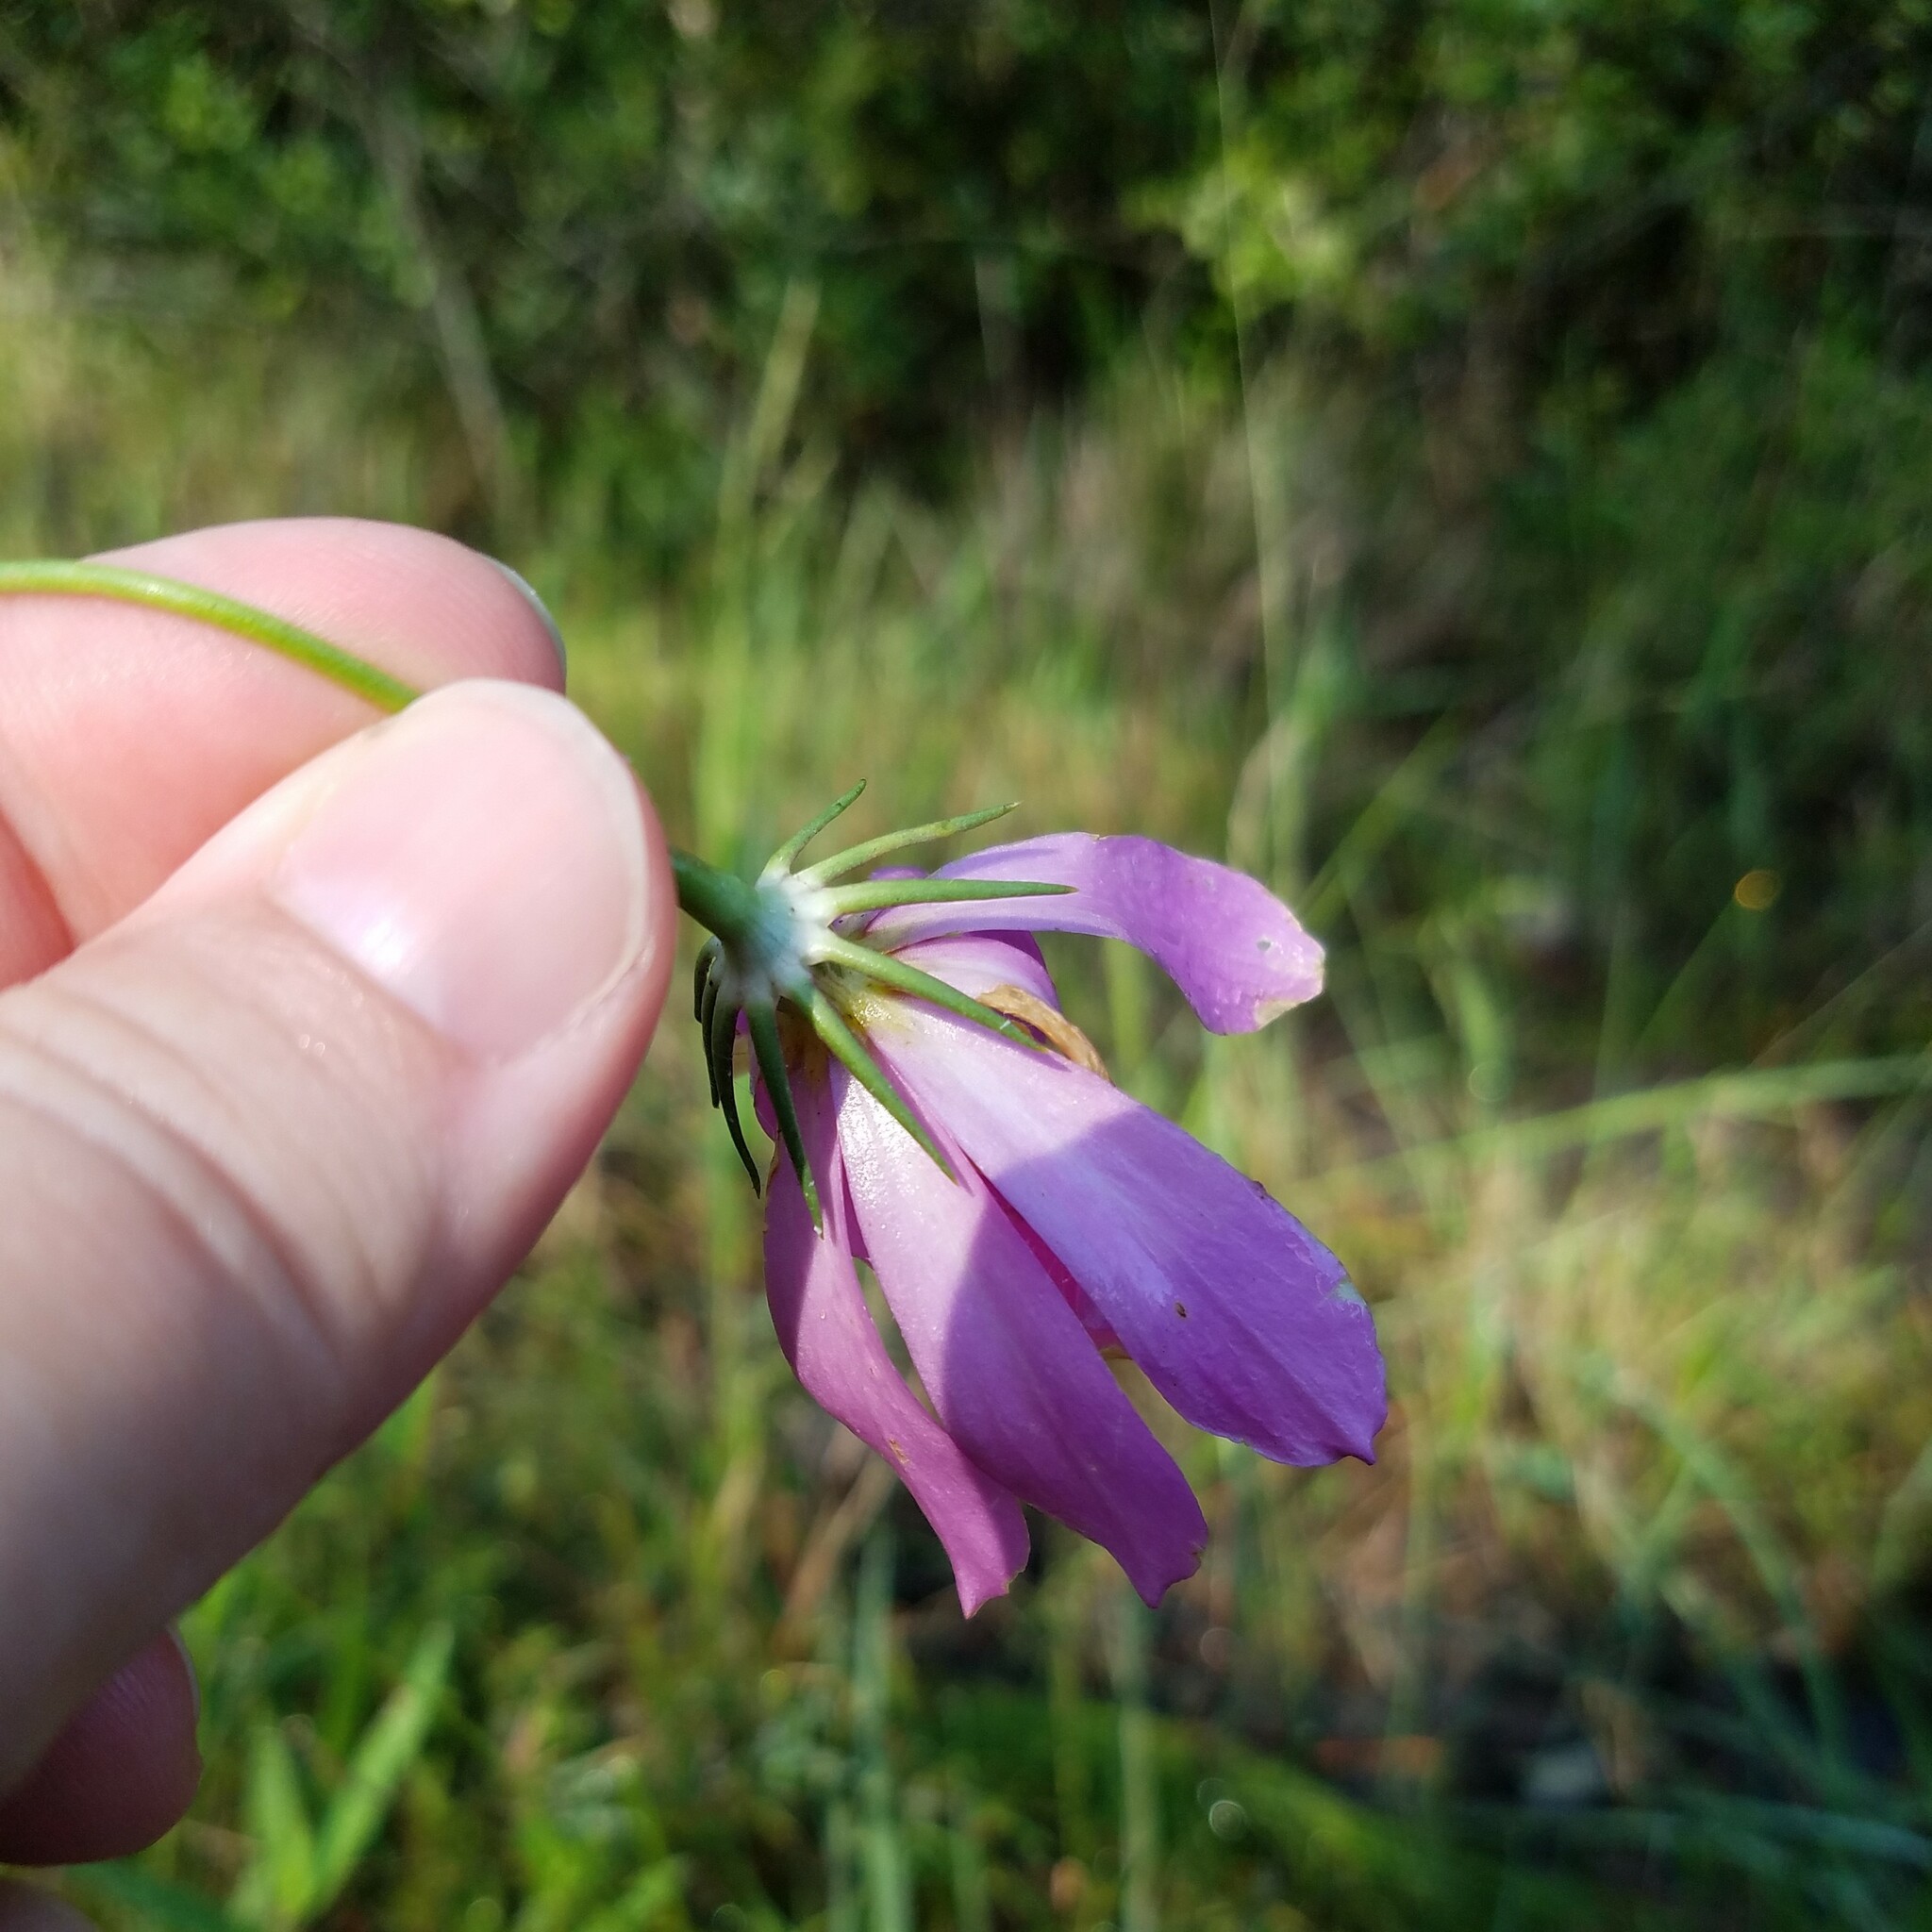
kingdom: Plantae
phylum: Tracheophyta
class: Magnoliopsida
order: Gentianales
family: Gentianaceae
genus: Sabatia
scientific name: Sabatia decandra
